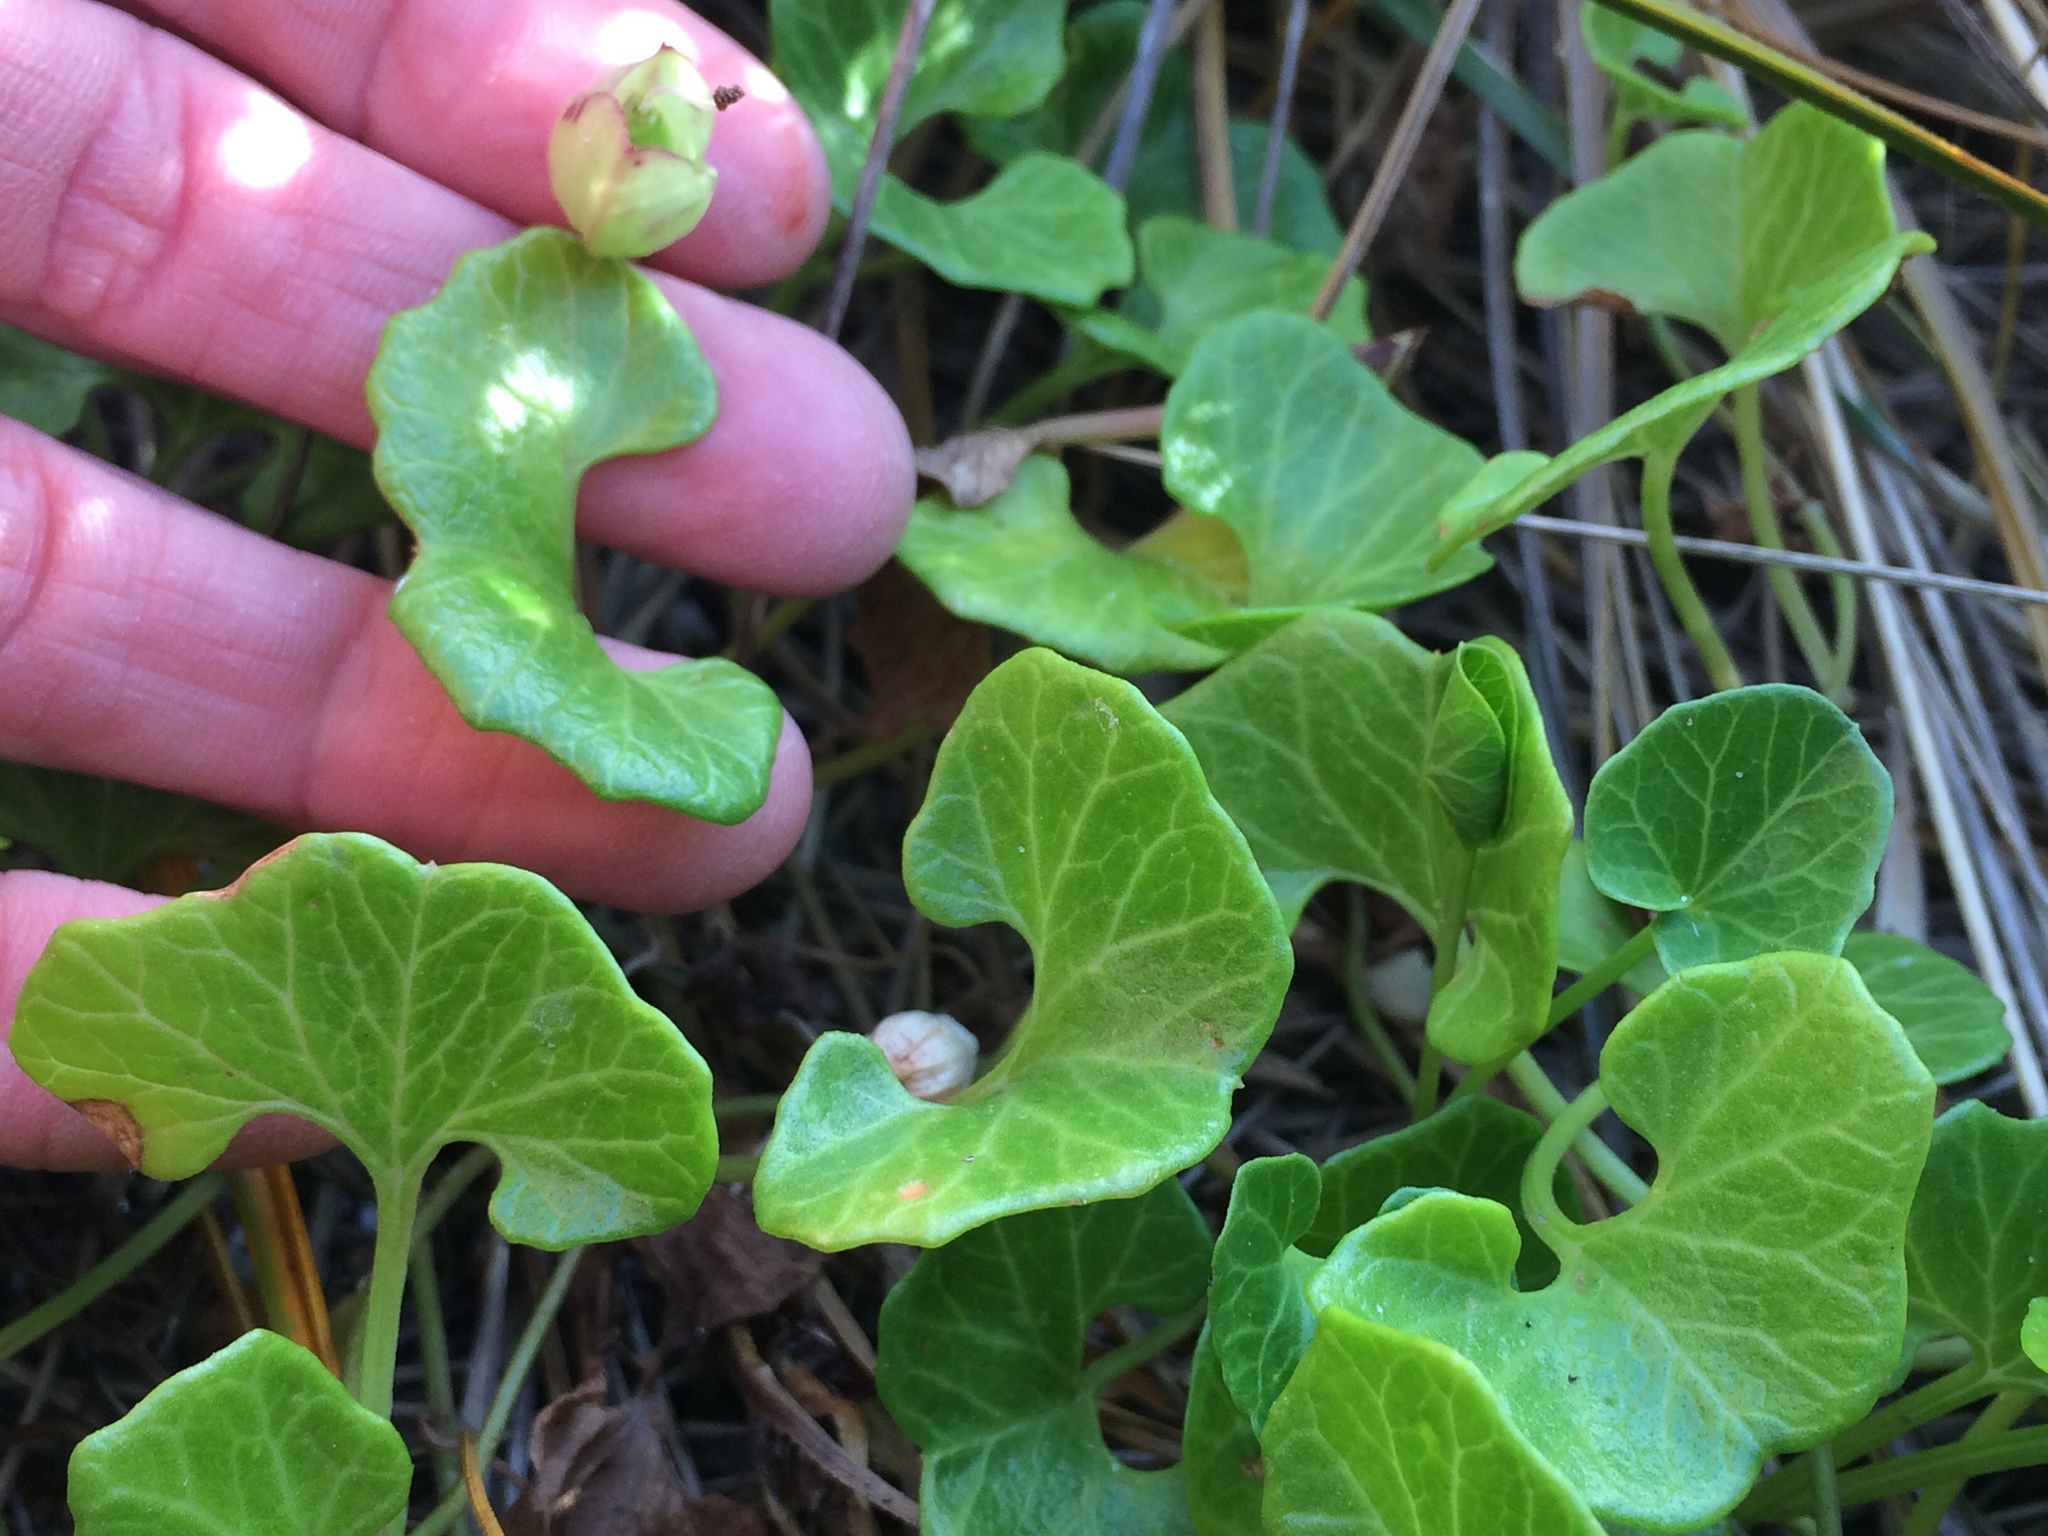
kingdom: Plantae
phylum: Tracheophyta
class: Magnoliopsida
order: Solanales
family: Convolvulaceae
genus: Calystegia
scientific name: Calystegia soldanella
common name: Sea bindweed
